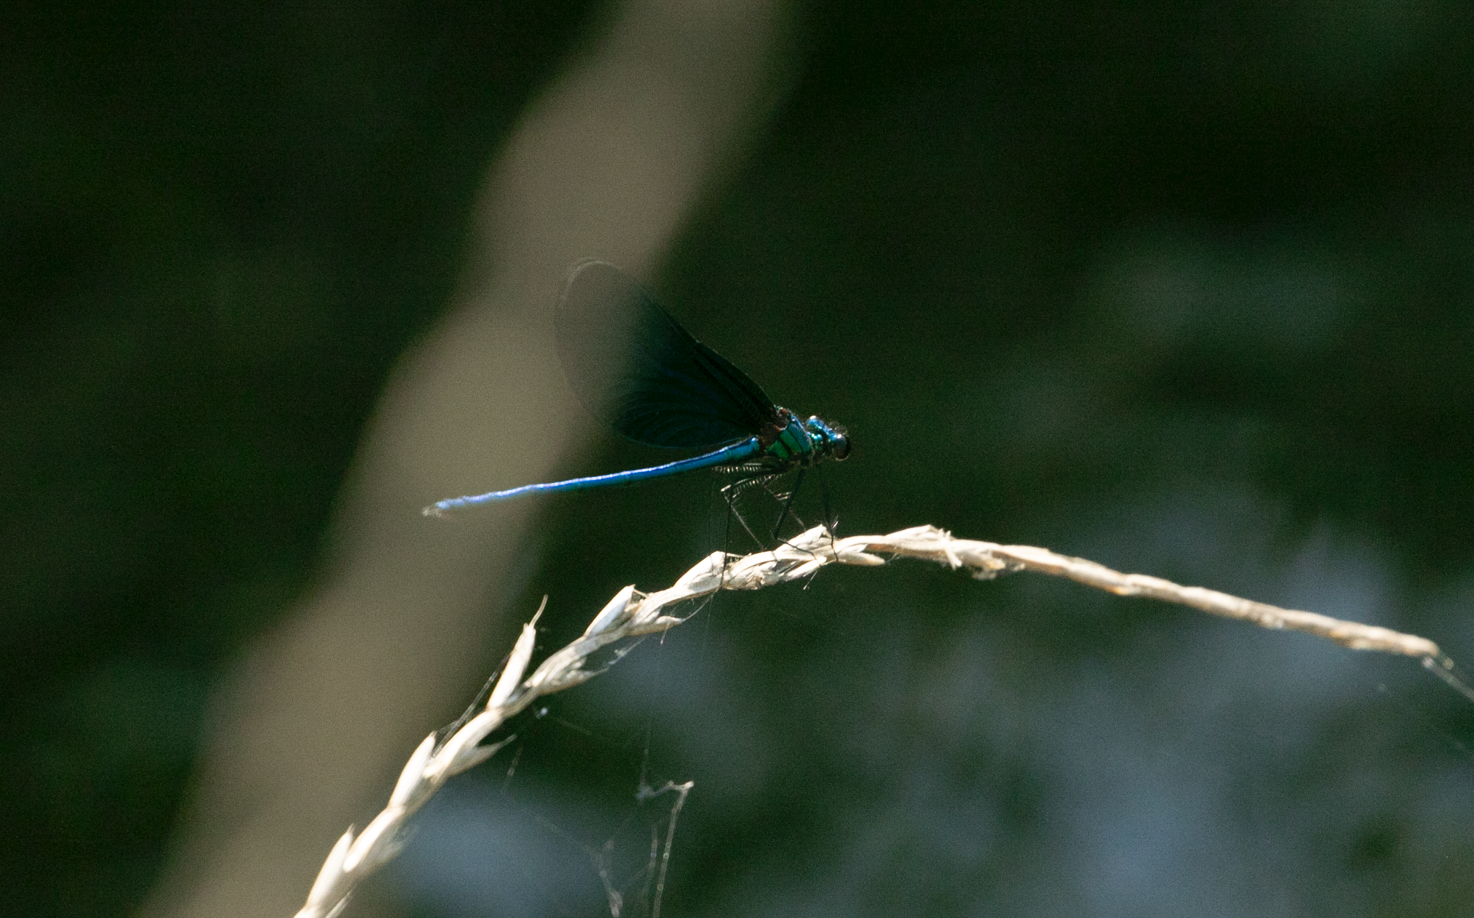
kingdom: Animalia
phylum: Arthropoda
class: Insecta
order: Odonata
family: Calopterygidae
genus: Calopteryx
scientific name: Calopteryx virgo
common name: Beautiful demoiselle
